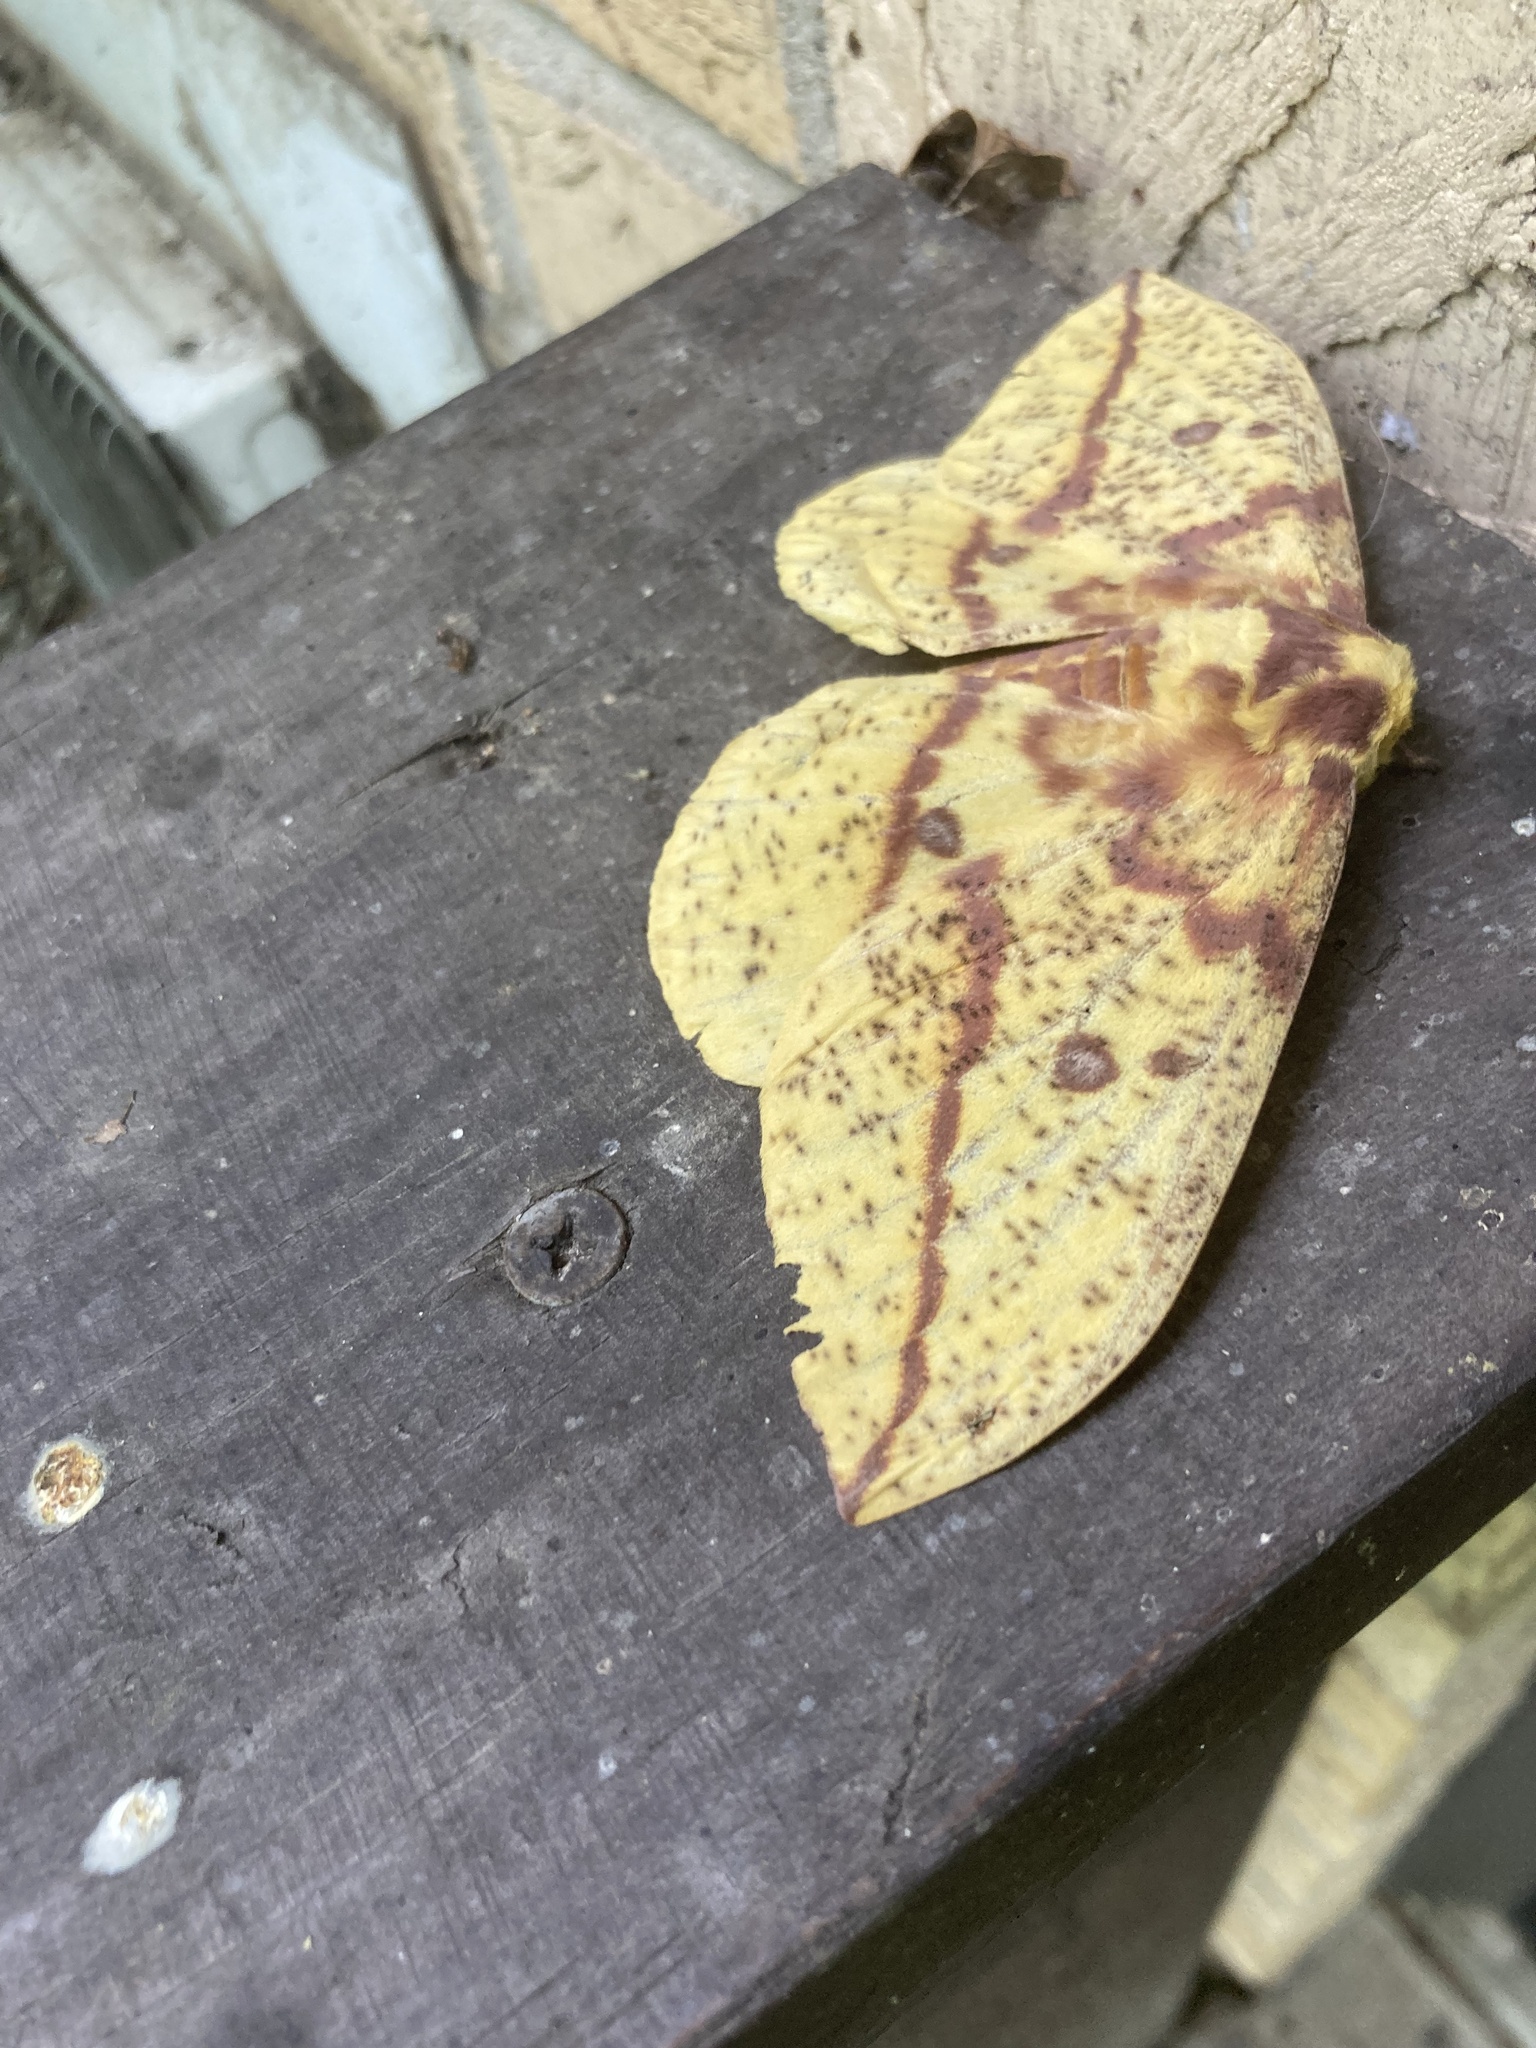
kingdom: Animalia
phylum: Arthropoda
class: Insecta
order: Lepidoptera
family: Saturniidae
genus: Eacles
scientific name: Eacles imperialis
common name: Imperial moth
